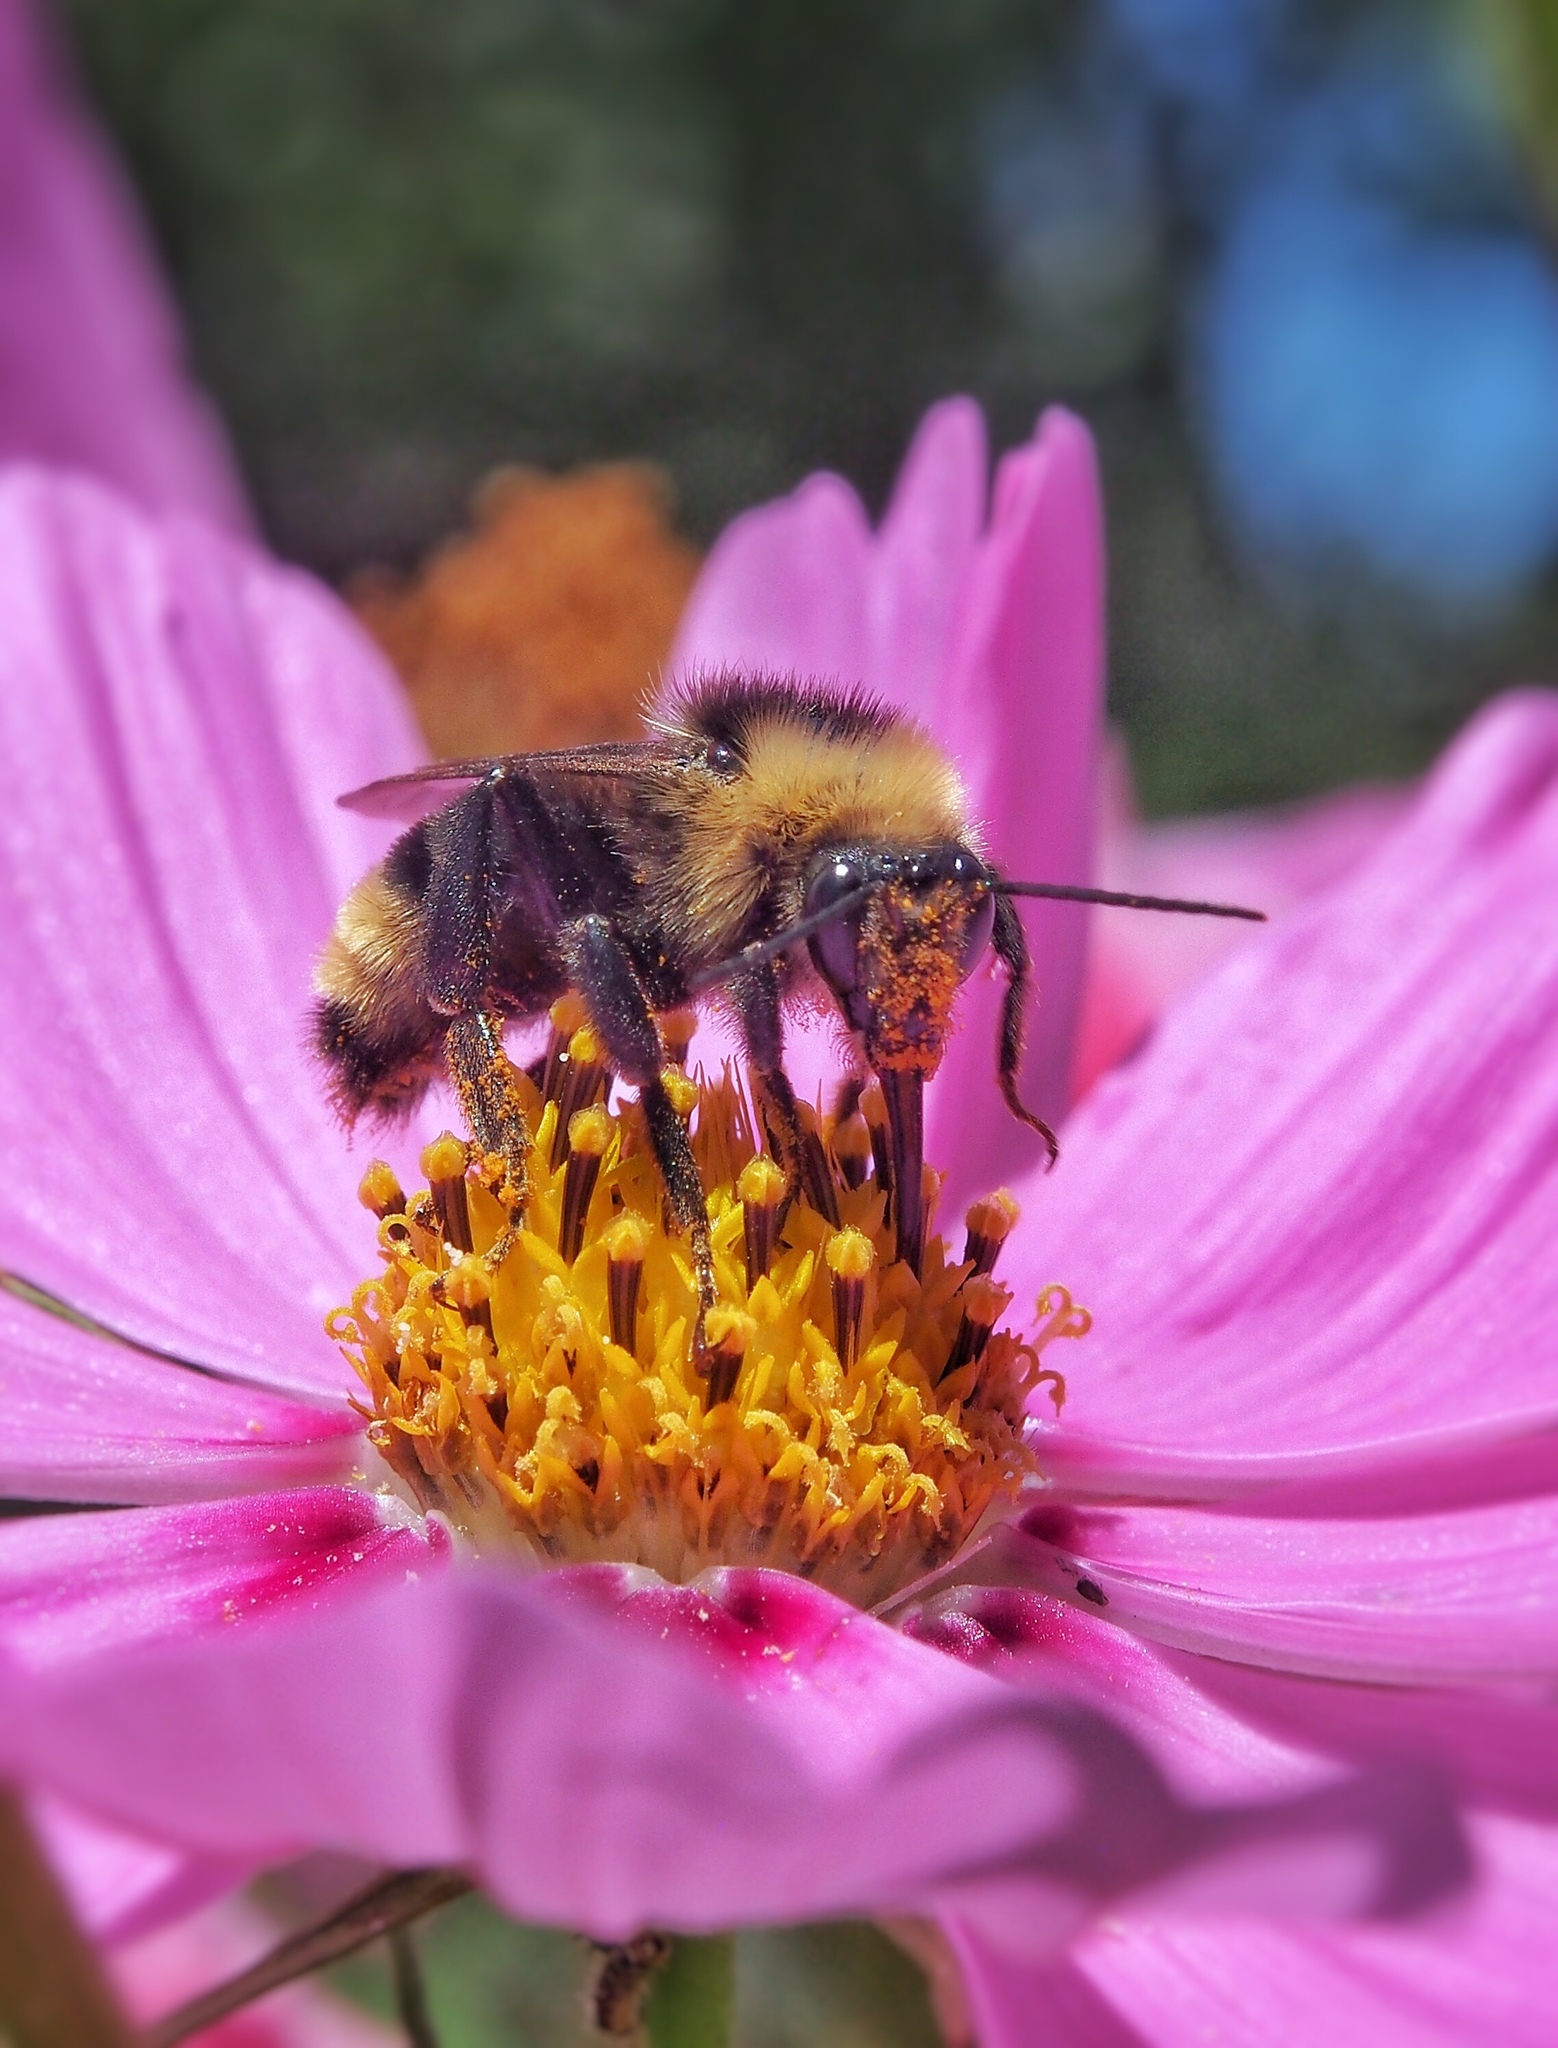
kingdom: Animalia
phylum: Arthropoda
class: Insecta
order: Hymenoptera
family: Apidae
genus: Bombus
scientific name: Bombus californicus
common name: California bumble bee
